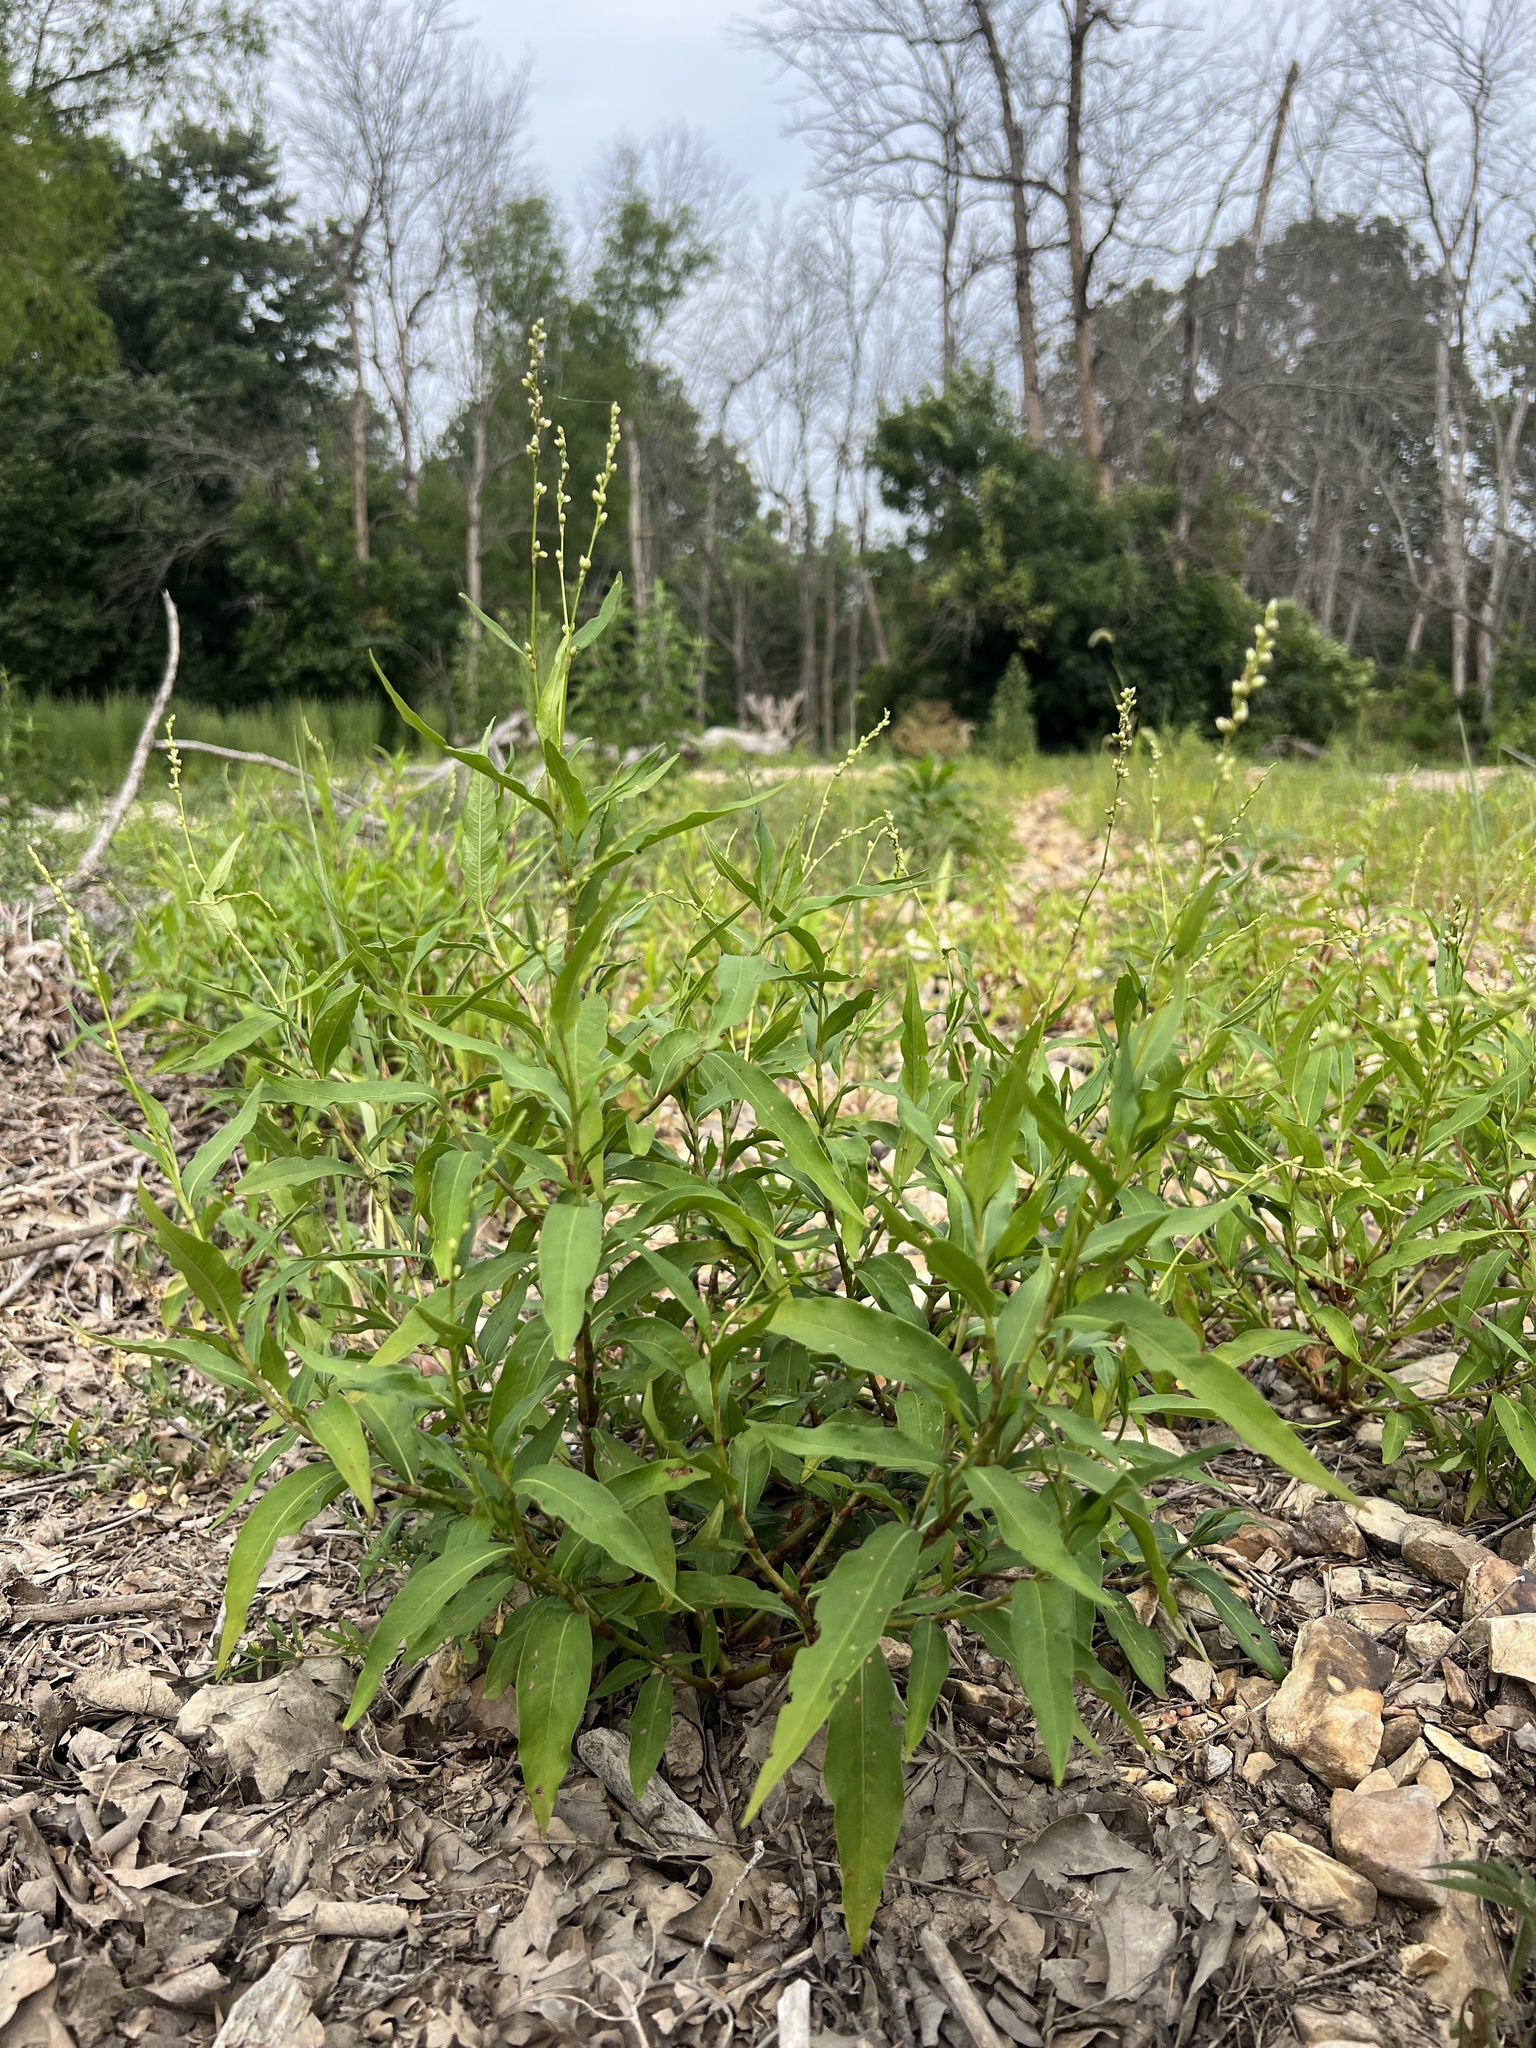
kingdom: Plantae
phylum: Tracheophyta
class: Magnoliopsida
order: Caryophyllales
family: Polygonaceae
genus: Persicaria
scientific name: Persicaria punctata
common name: Dotted smartweed
